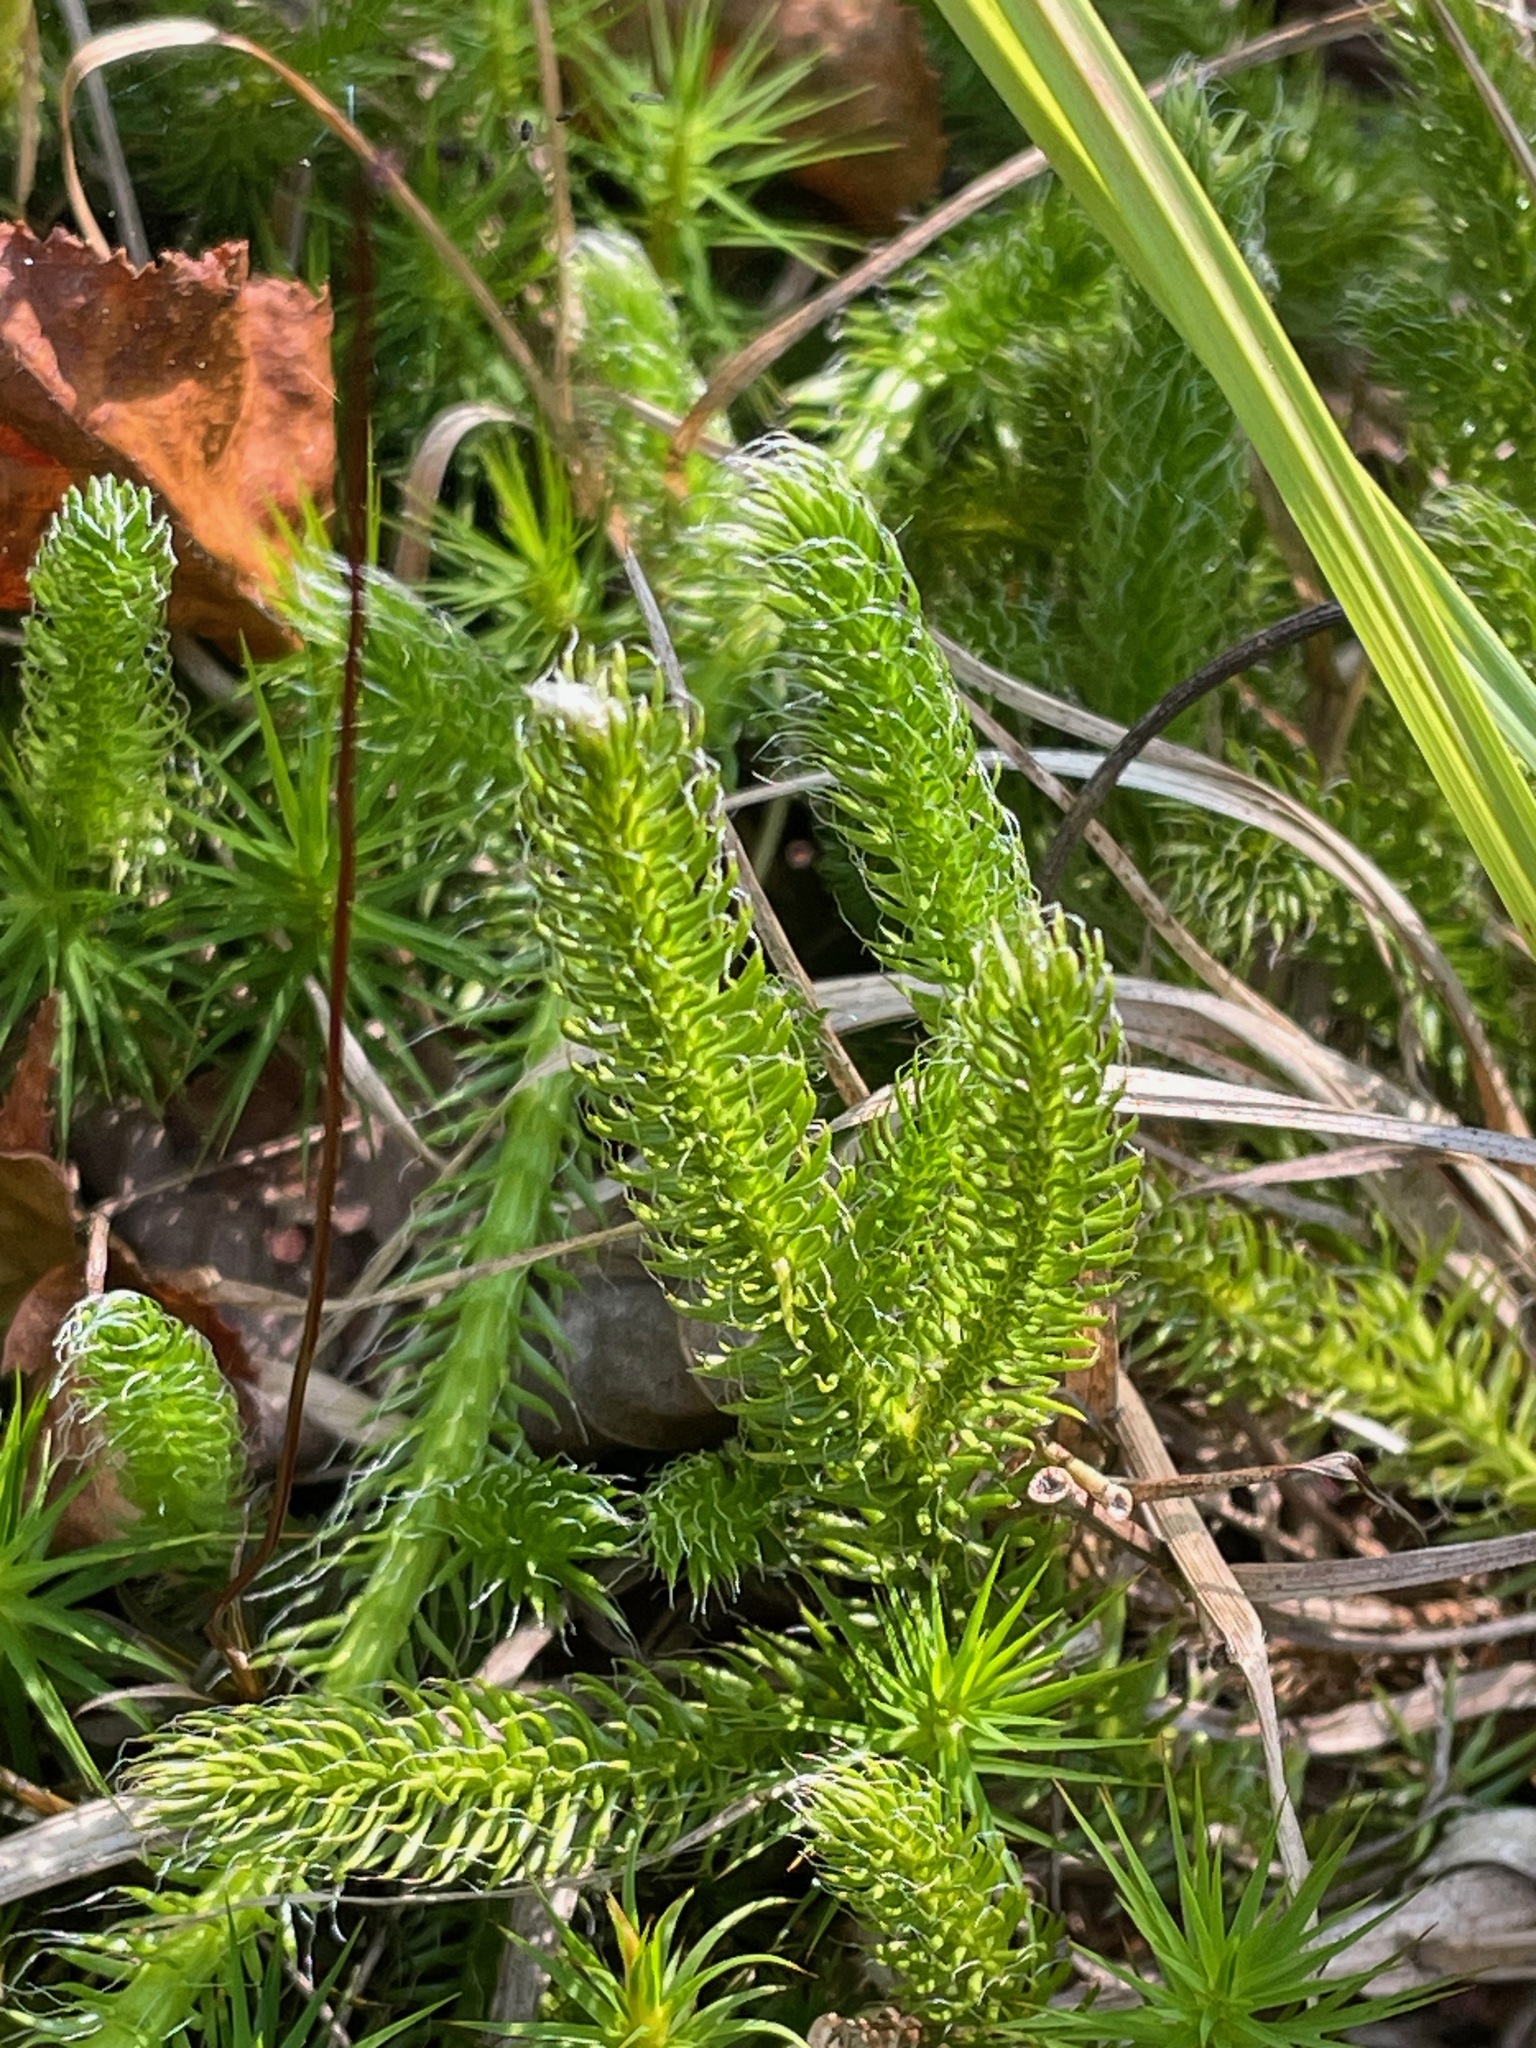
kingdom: Plantae
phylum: Tracheophyta
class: Lycopodiopsida
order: Lycopodiales
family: Lycopodiaceae
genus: Lycopodium
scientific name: Lycopodium clavatum
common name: Stag's-horn clubmoss
